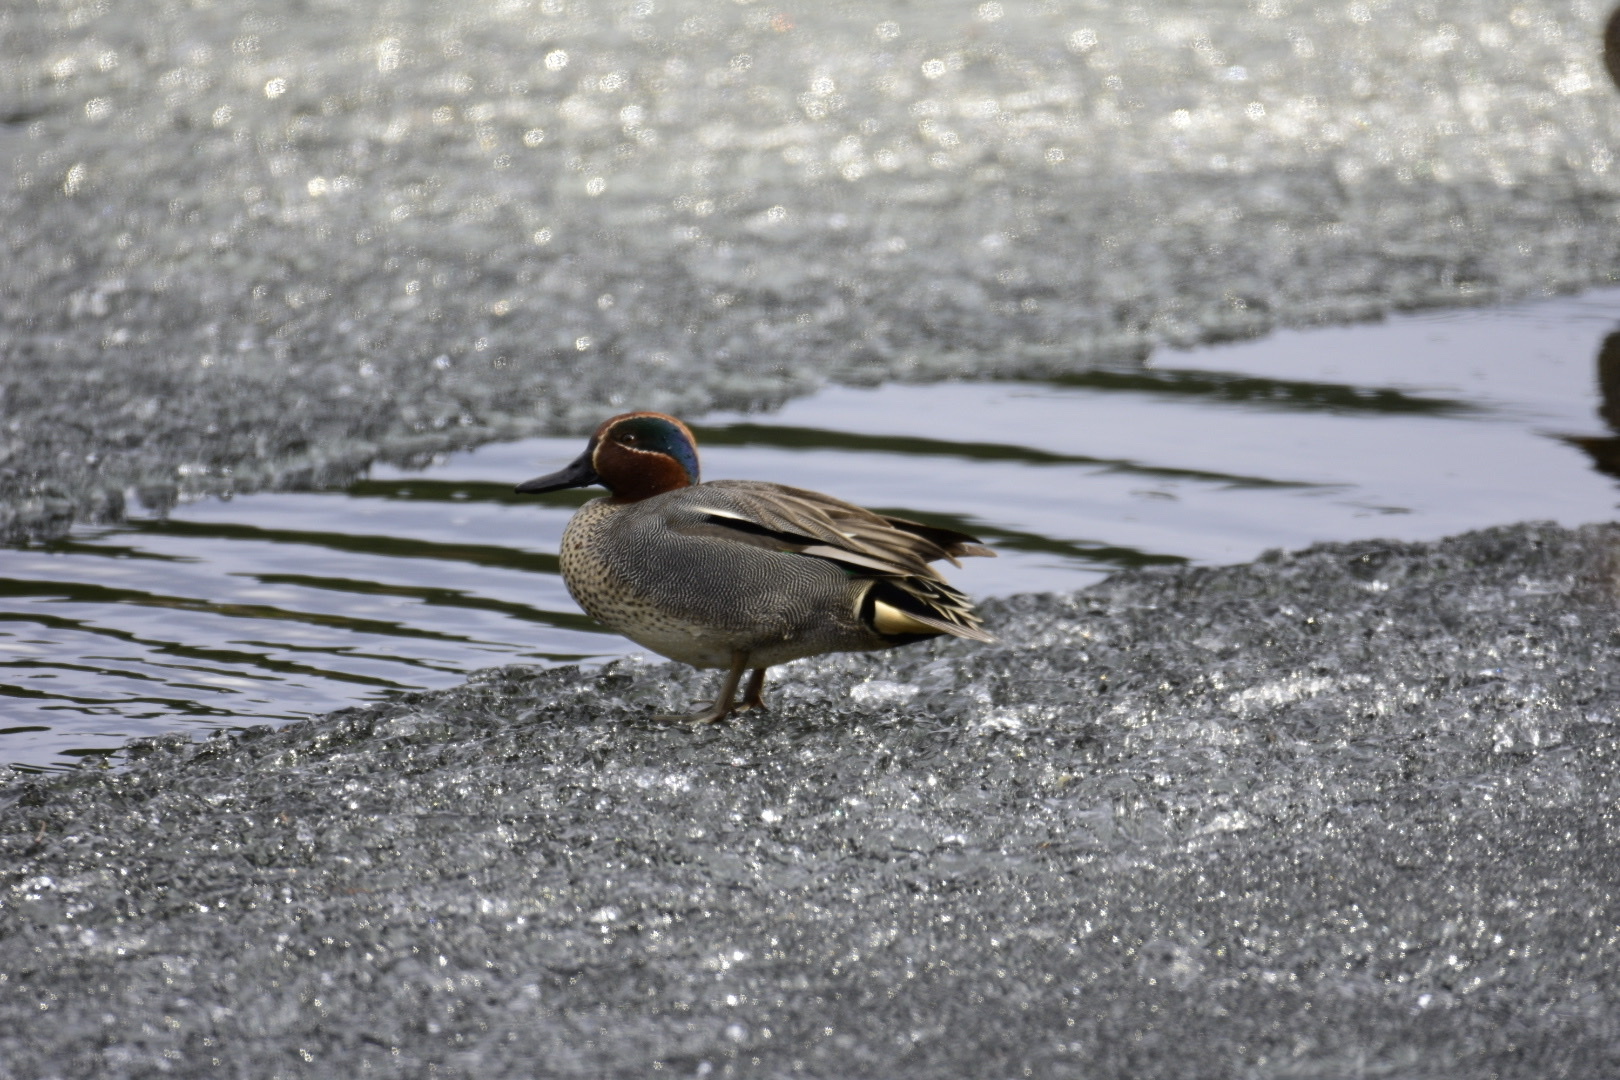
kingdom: Animalia
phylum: Chordata
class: Aves
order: Anseriformes
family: Anatidae
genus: Anas
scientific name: Anas crecca
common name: Eurasian teal
